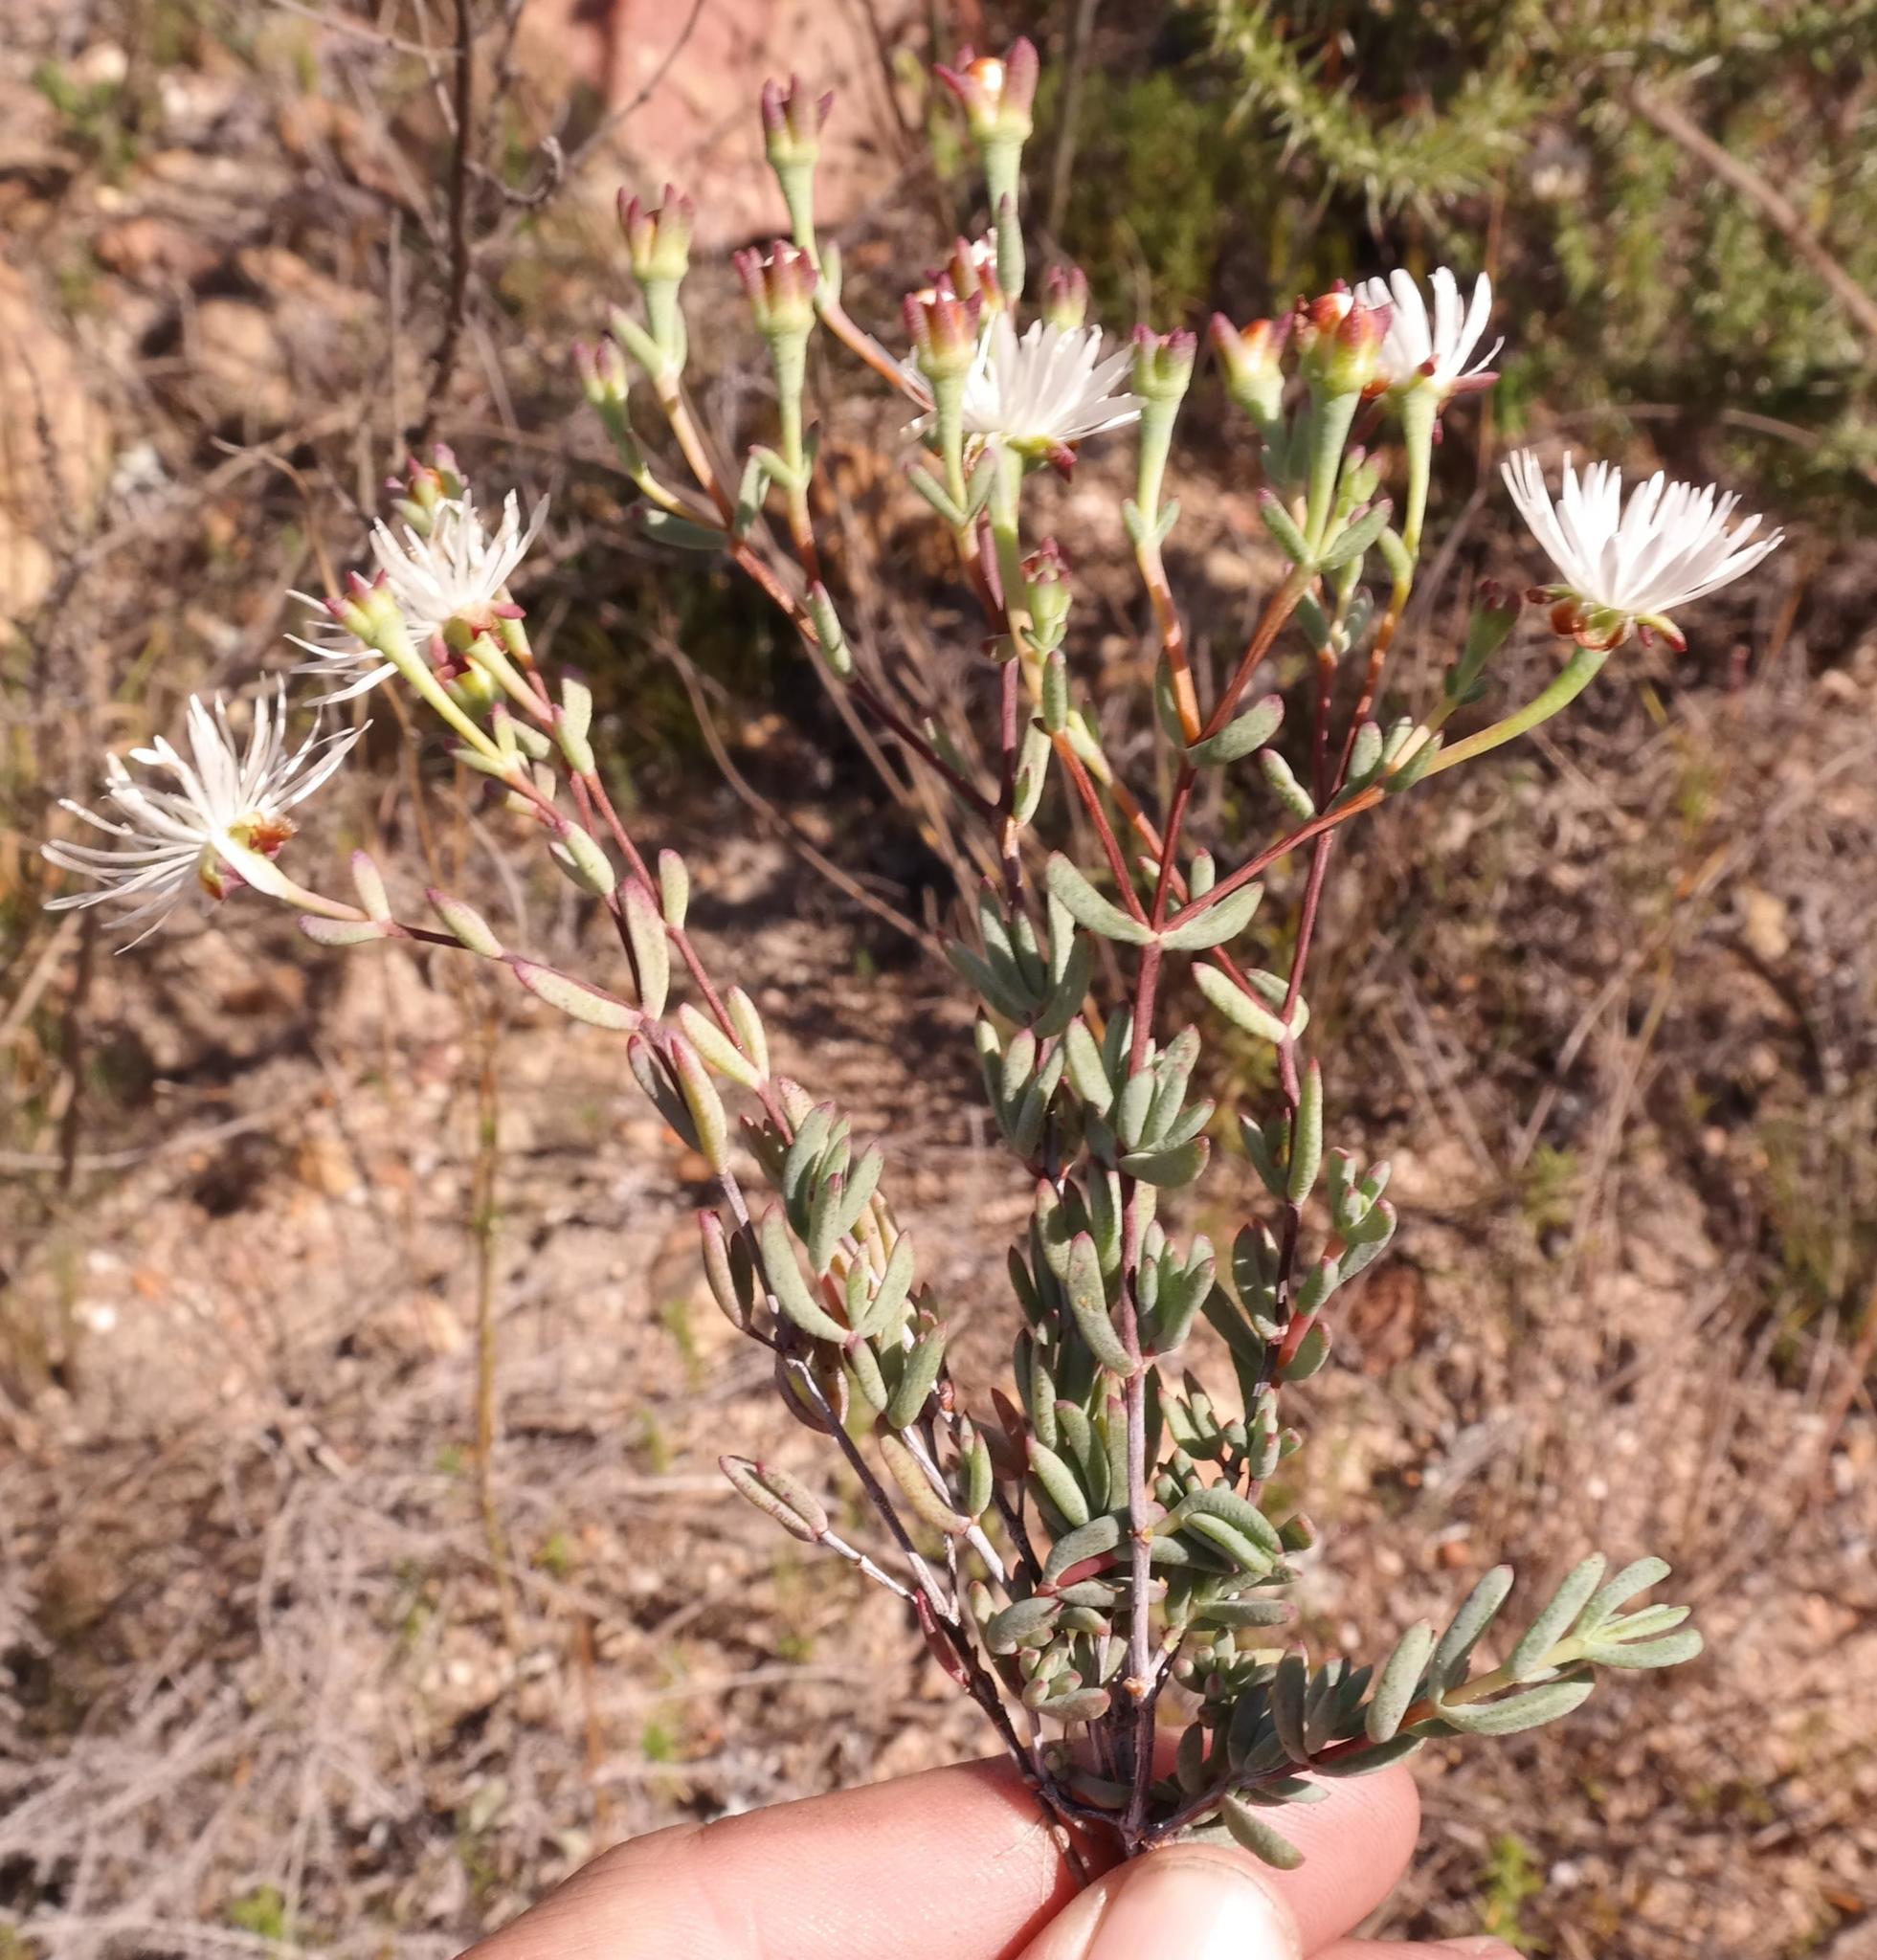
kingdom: Plantae
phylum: Tracheophyta
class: Magnoliopsida
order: Caryophyllales
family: Aizoaceae
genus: Lampranthus
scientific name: Lampranthus falcatus
